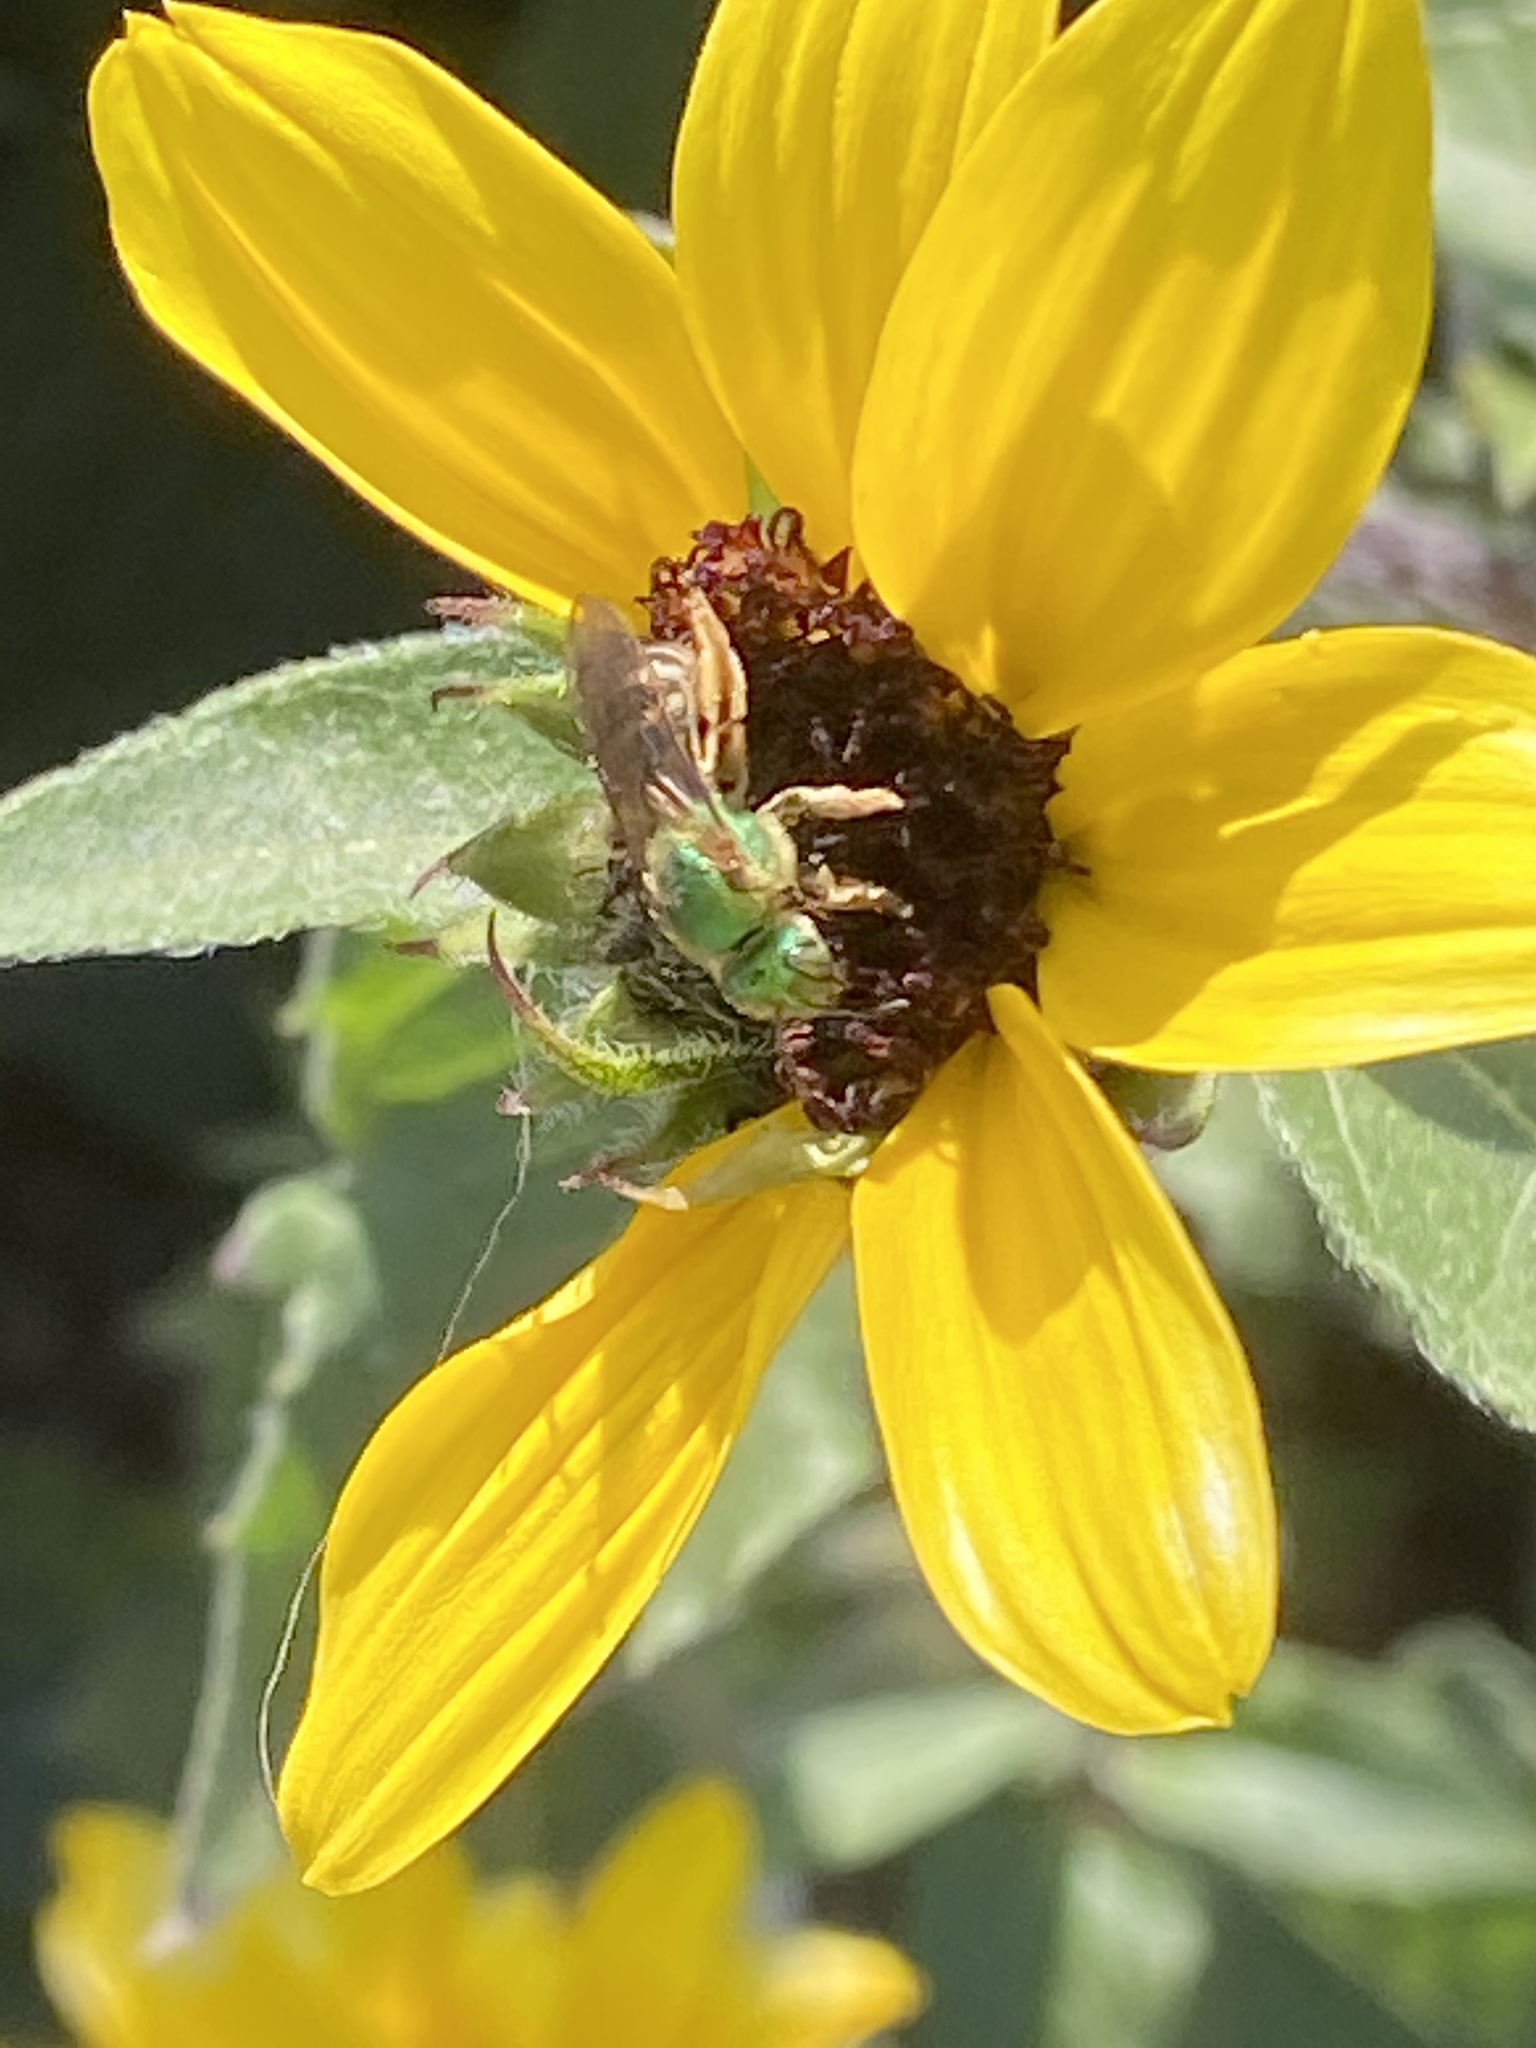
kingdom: Animalia
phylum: Arthropoda
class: Insecta
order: Hymenoptera
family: Halictidae
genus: Agapostemon
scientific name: Agapostemon virescens
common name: Bicolored striped sweat bee
